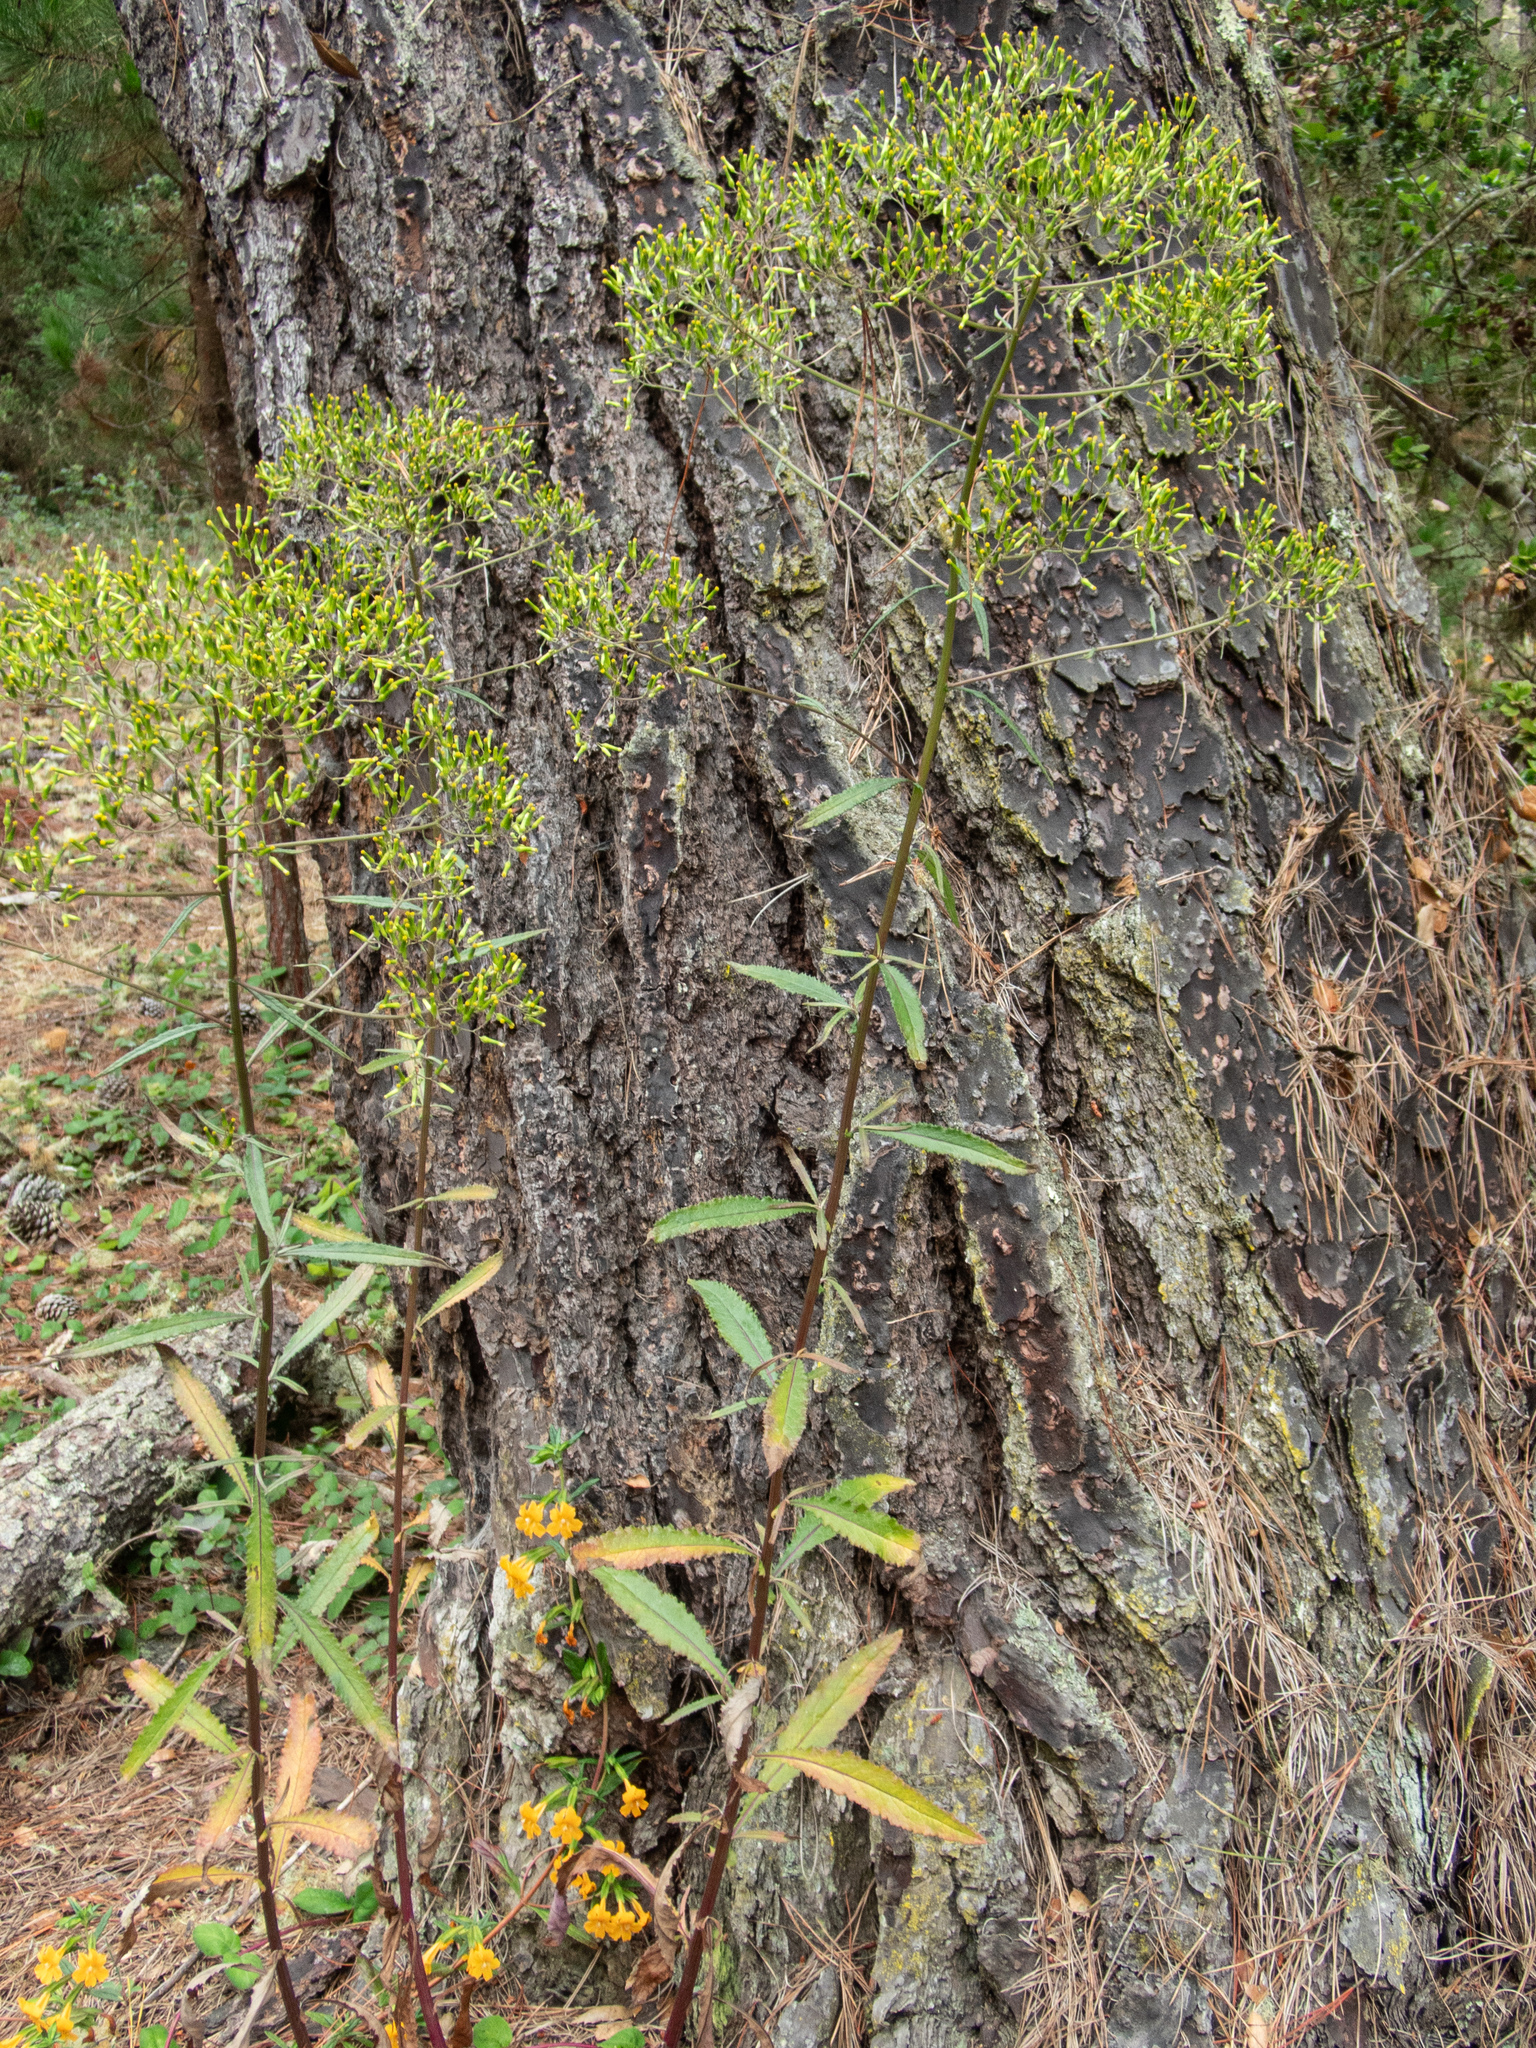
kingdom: Plantae
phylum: Tracheophyta
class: Magnoliopsida
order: Asterales
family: Asteraceae
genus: Senecio
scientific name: Senecio minimus
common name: Toothed fireweed
